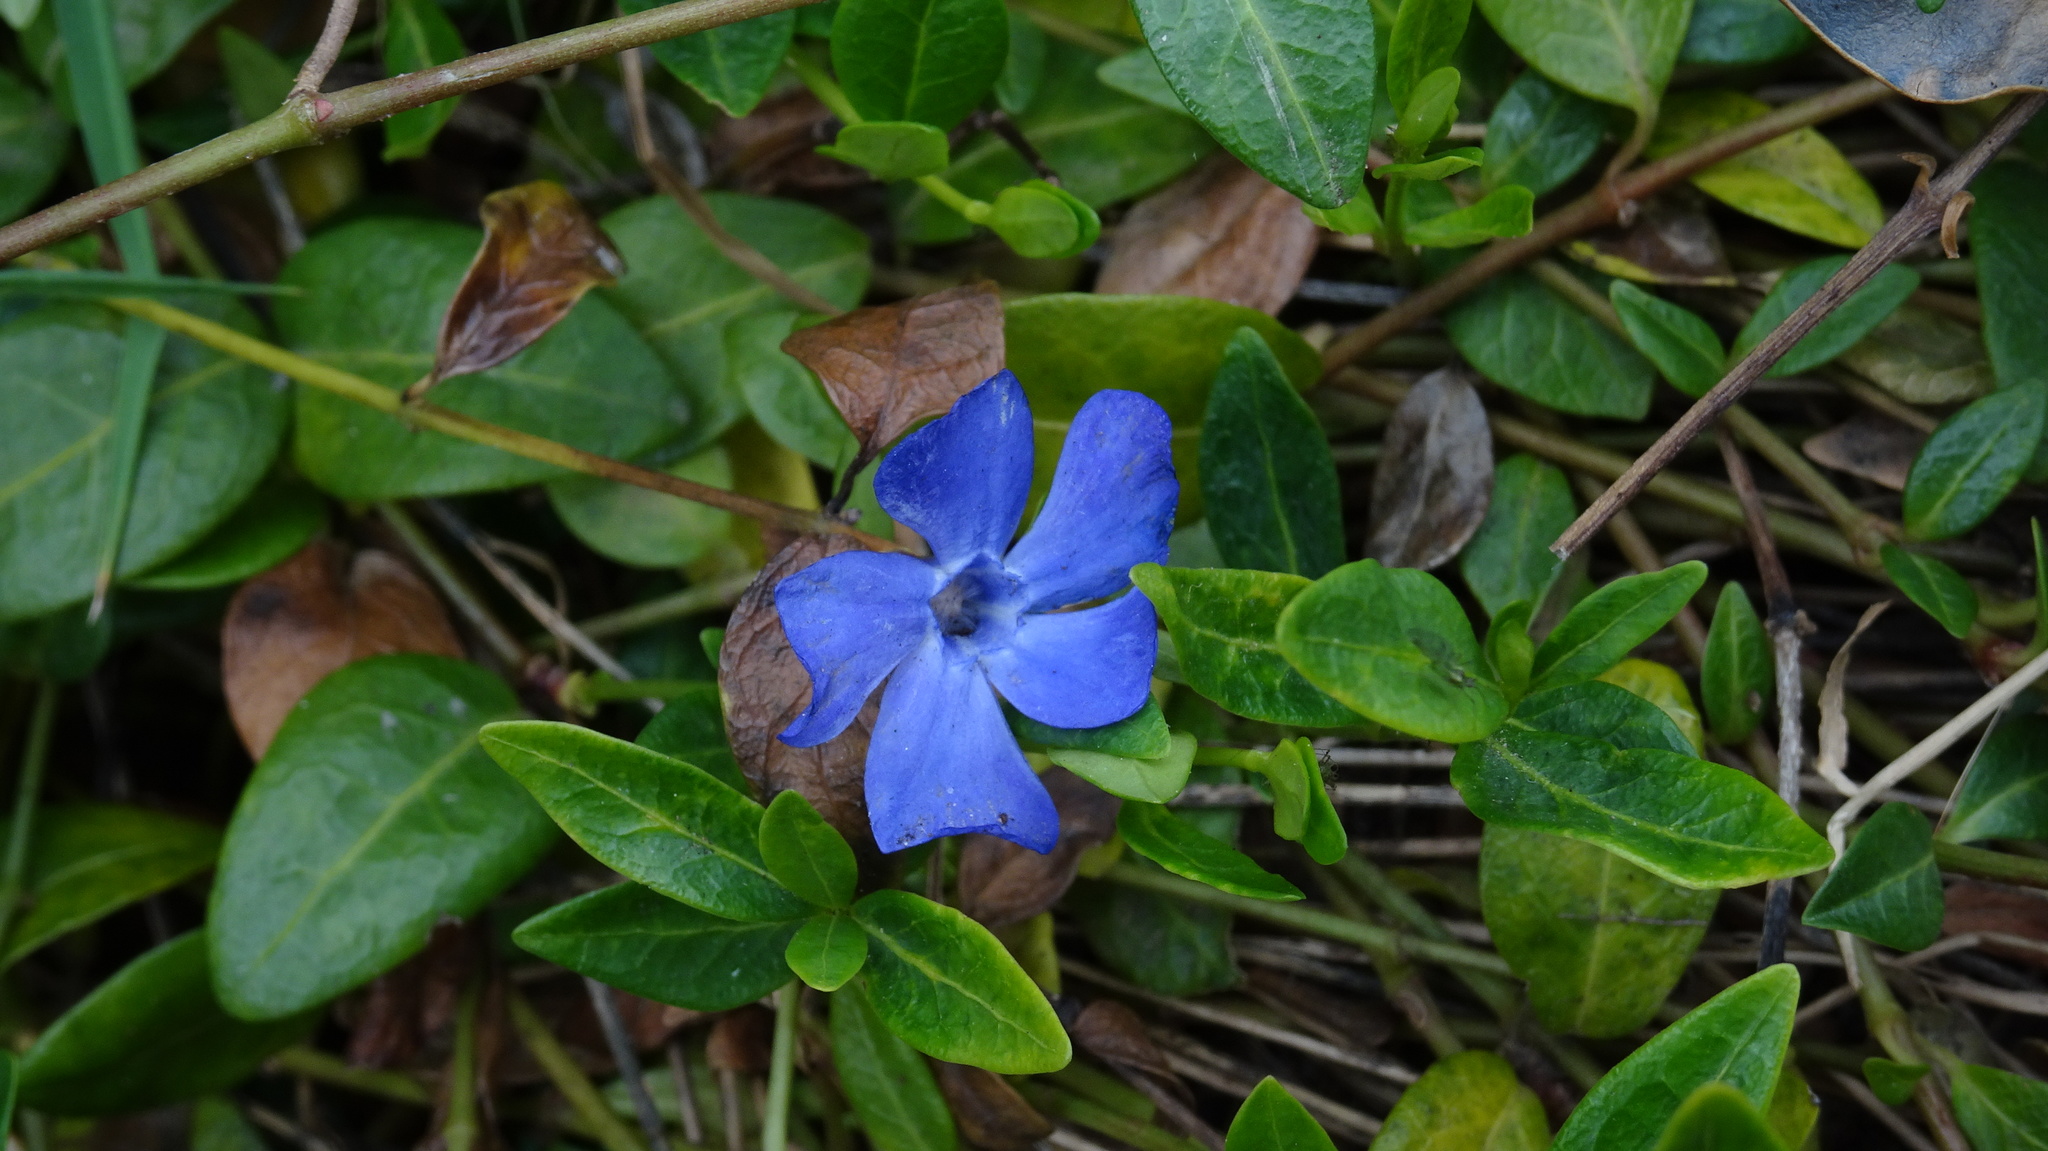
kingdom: Plantae
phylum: Tracheophyta
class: Magnoliopsida
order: Gentianales
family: Apocynaceae
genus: Vinca
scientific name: Vinca minor
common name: Lesser periwinkle
